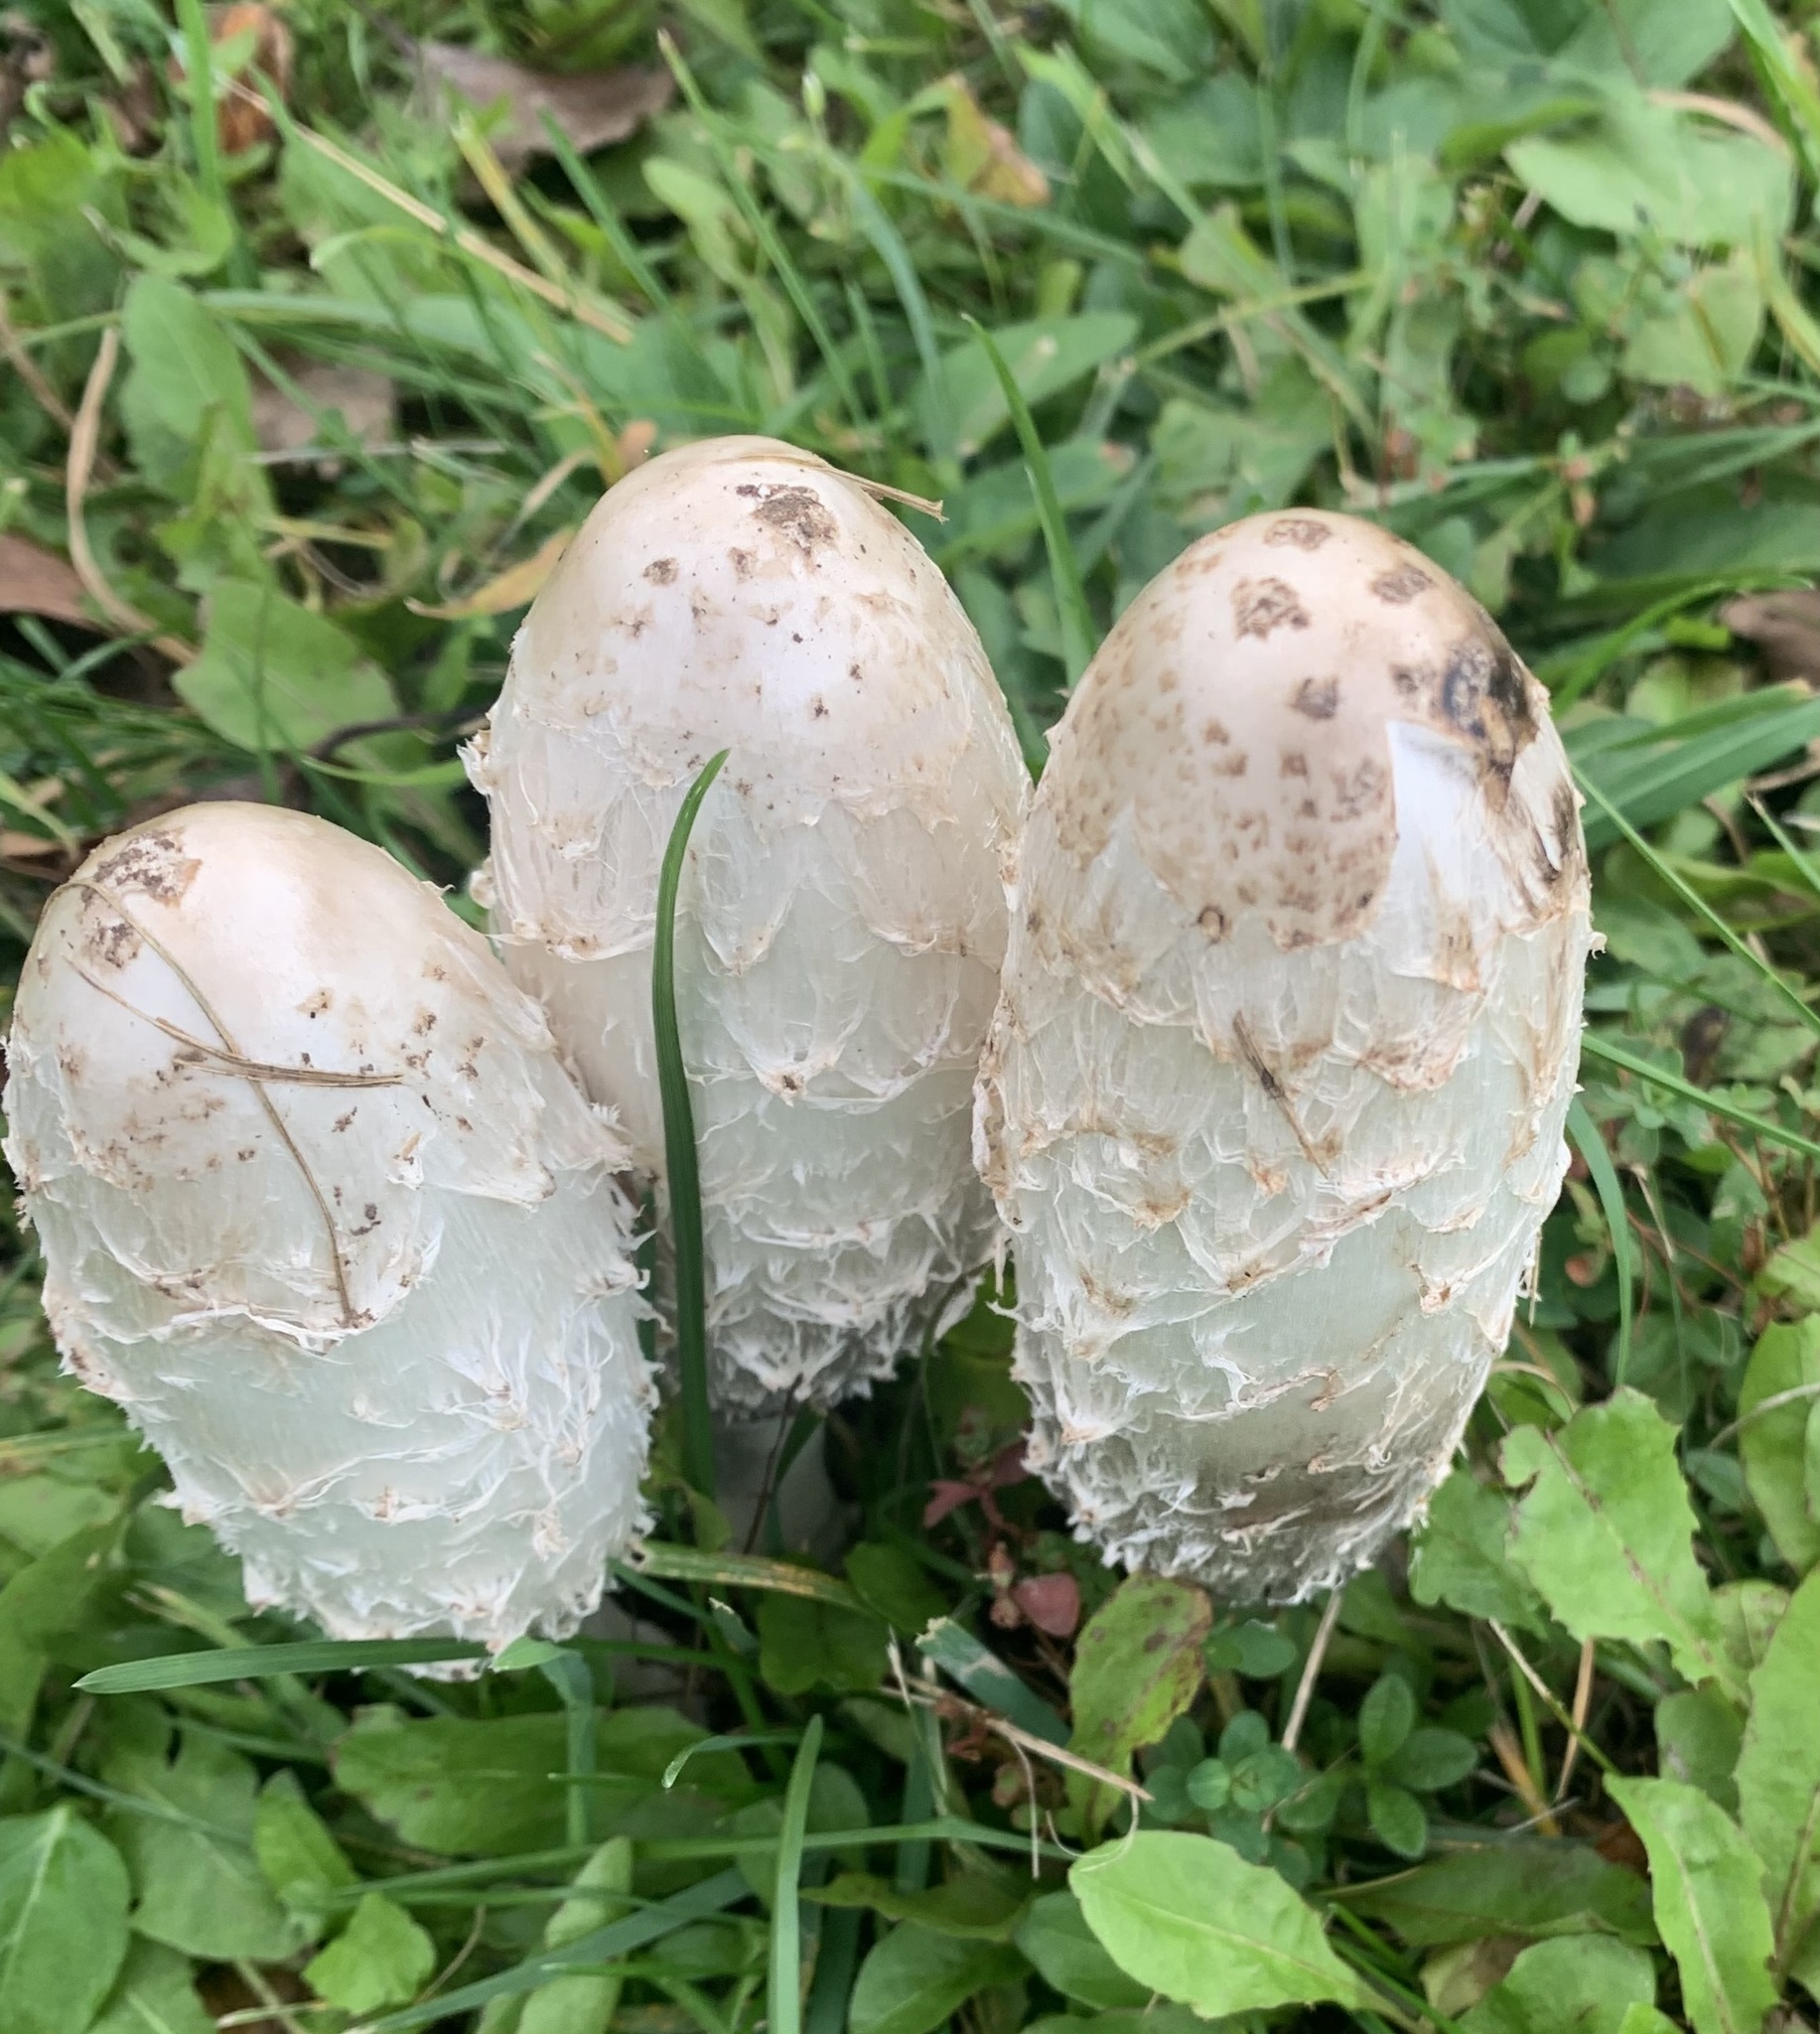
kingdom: Fungi
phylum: Basidiomycota
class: Agaricomycetes
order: Agaricales
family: Agaricaceae
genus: Coprinus
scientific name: Coprinus comatus
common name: Lawyer's wig
